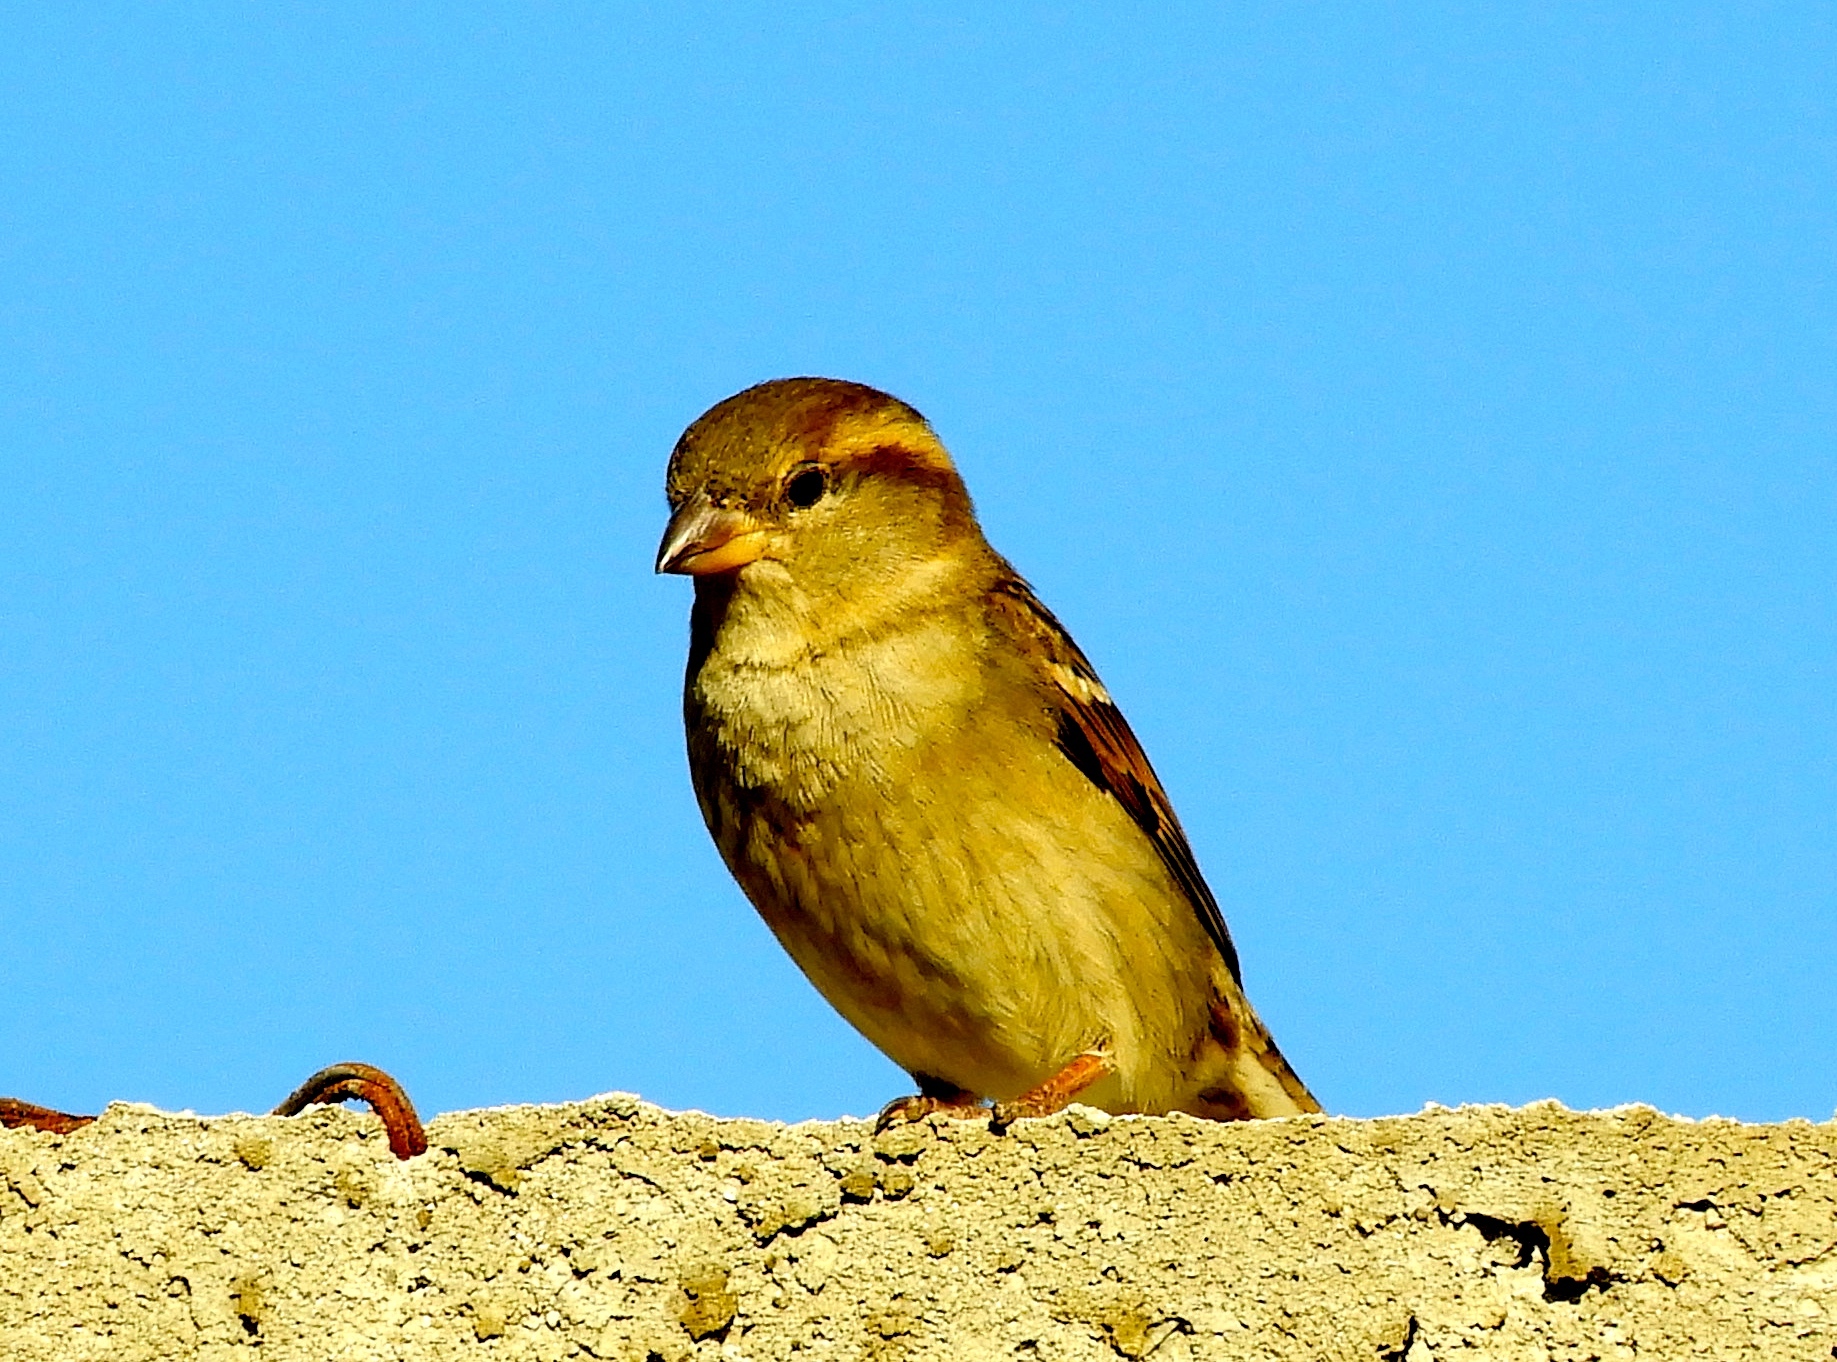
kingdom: Animalia
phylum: Chordata
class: Aves
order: Passeriformes
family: Passeridae
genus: Passer
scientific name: Passer domesticus
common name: House sparrow
